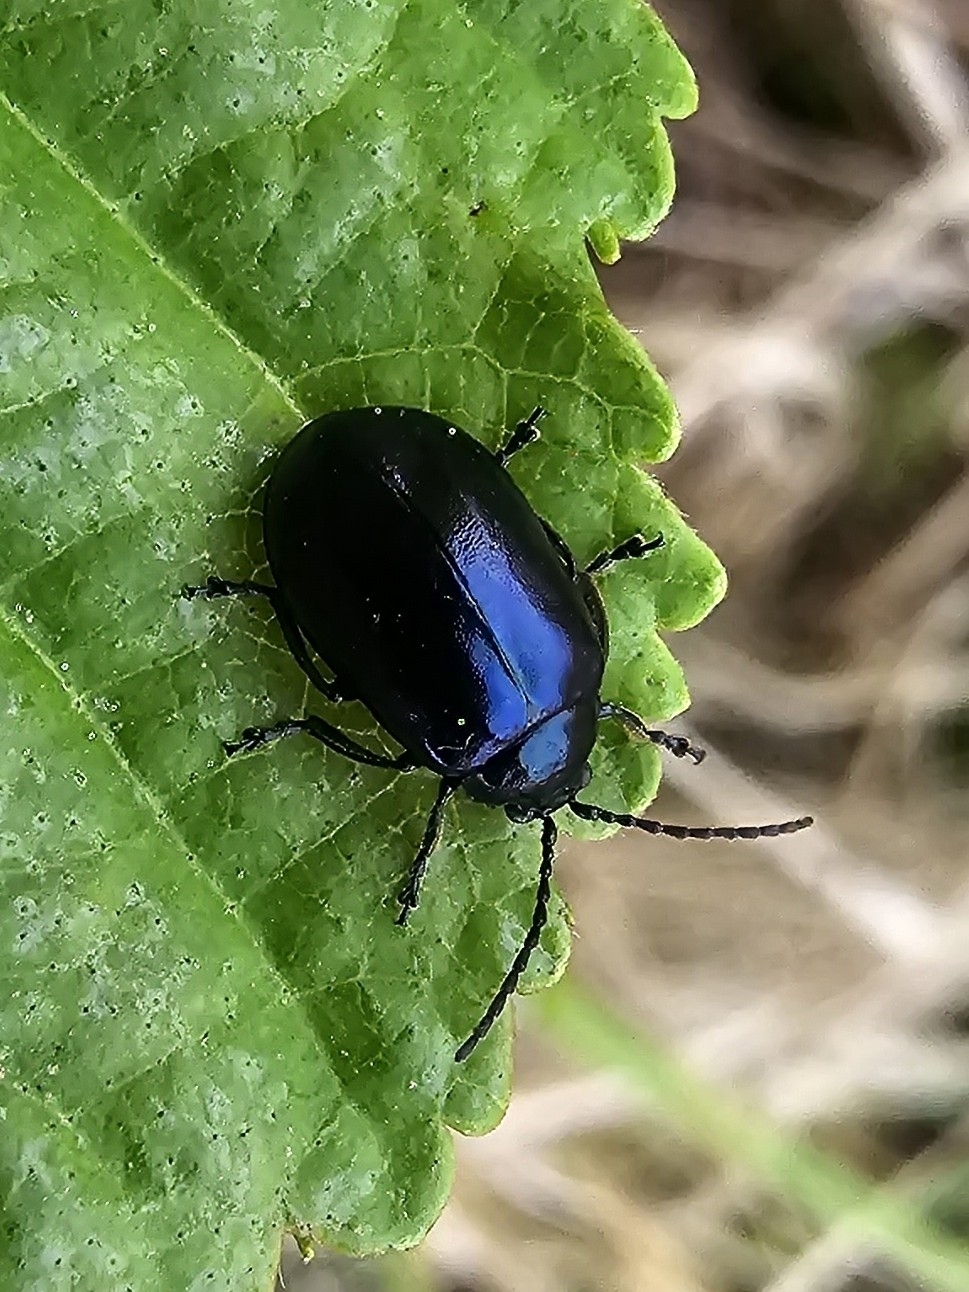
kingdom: Animalia
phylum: Arthropoda
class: Insecta
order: Coleoptera
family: Chrysomelidae
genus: Agelastica
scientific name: Agelastica alni
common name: Alder leaf beetle
